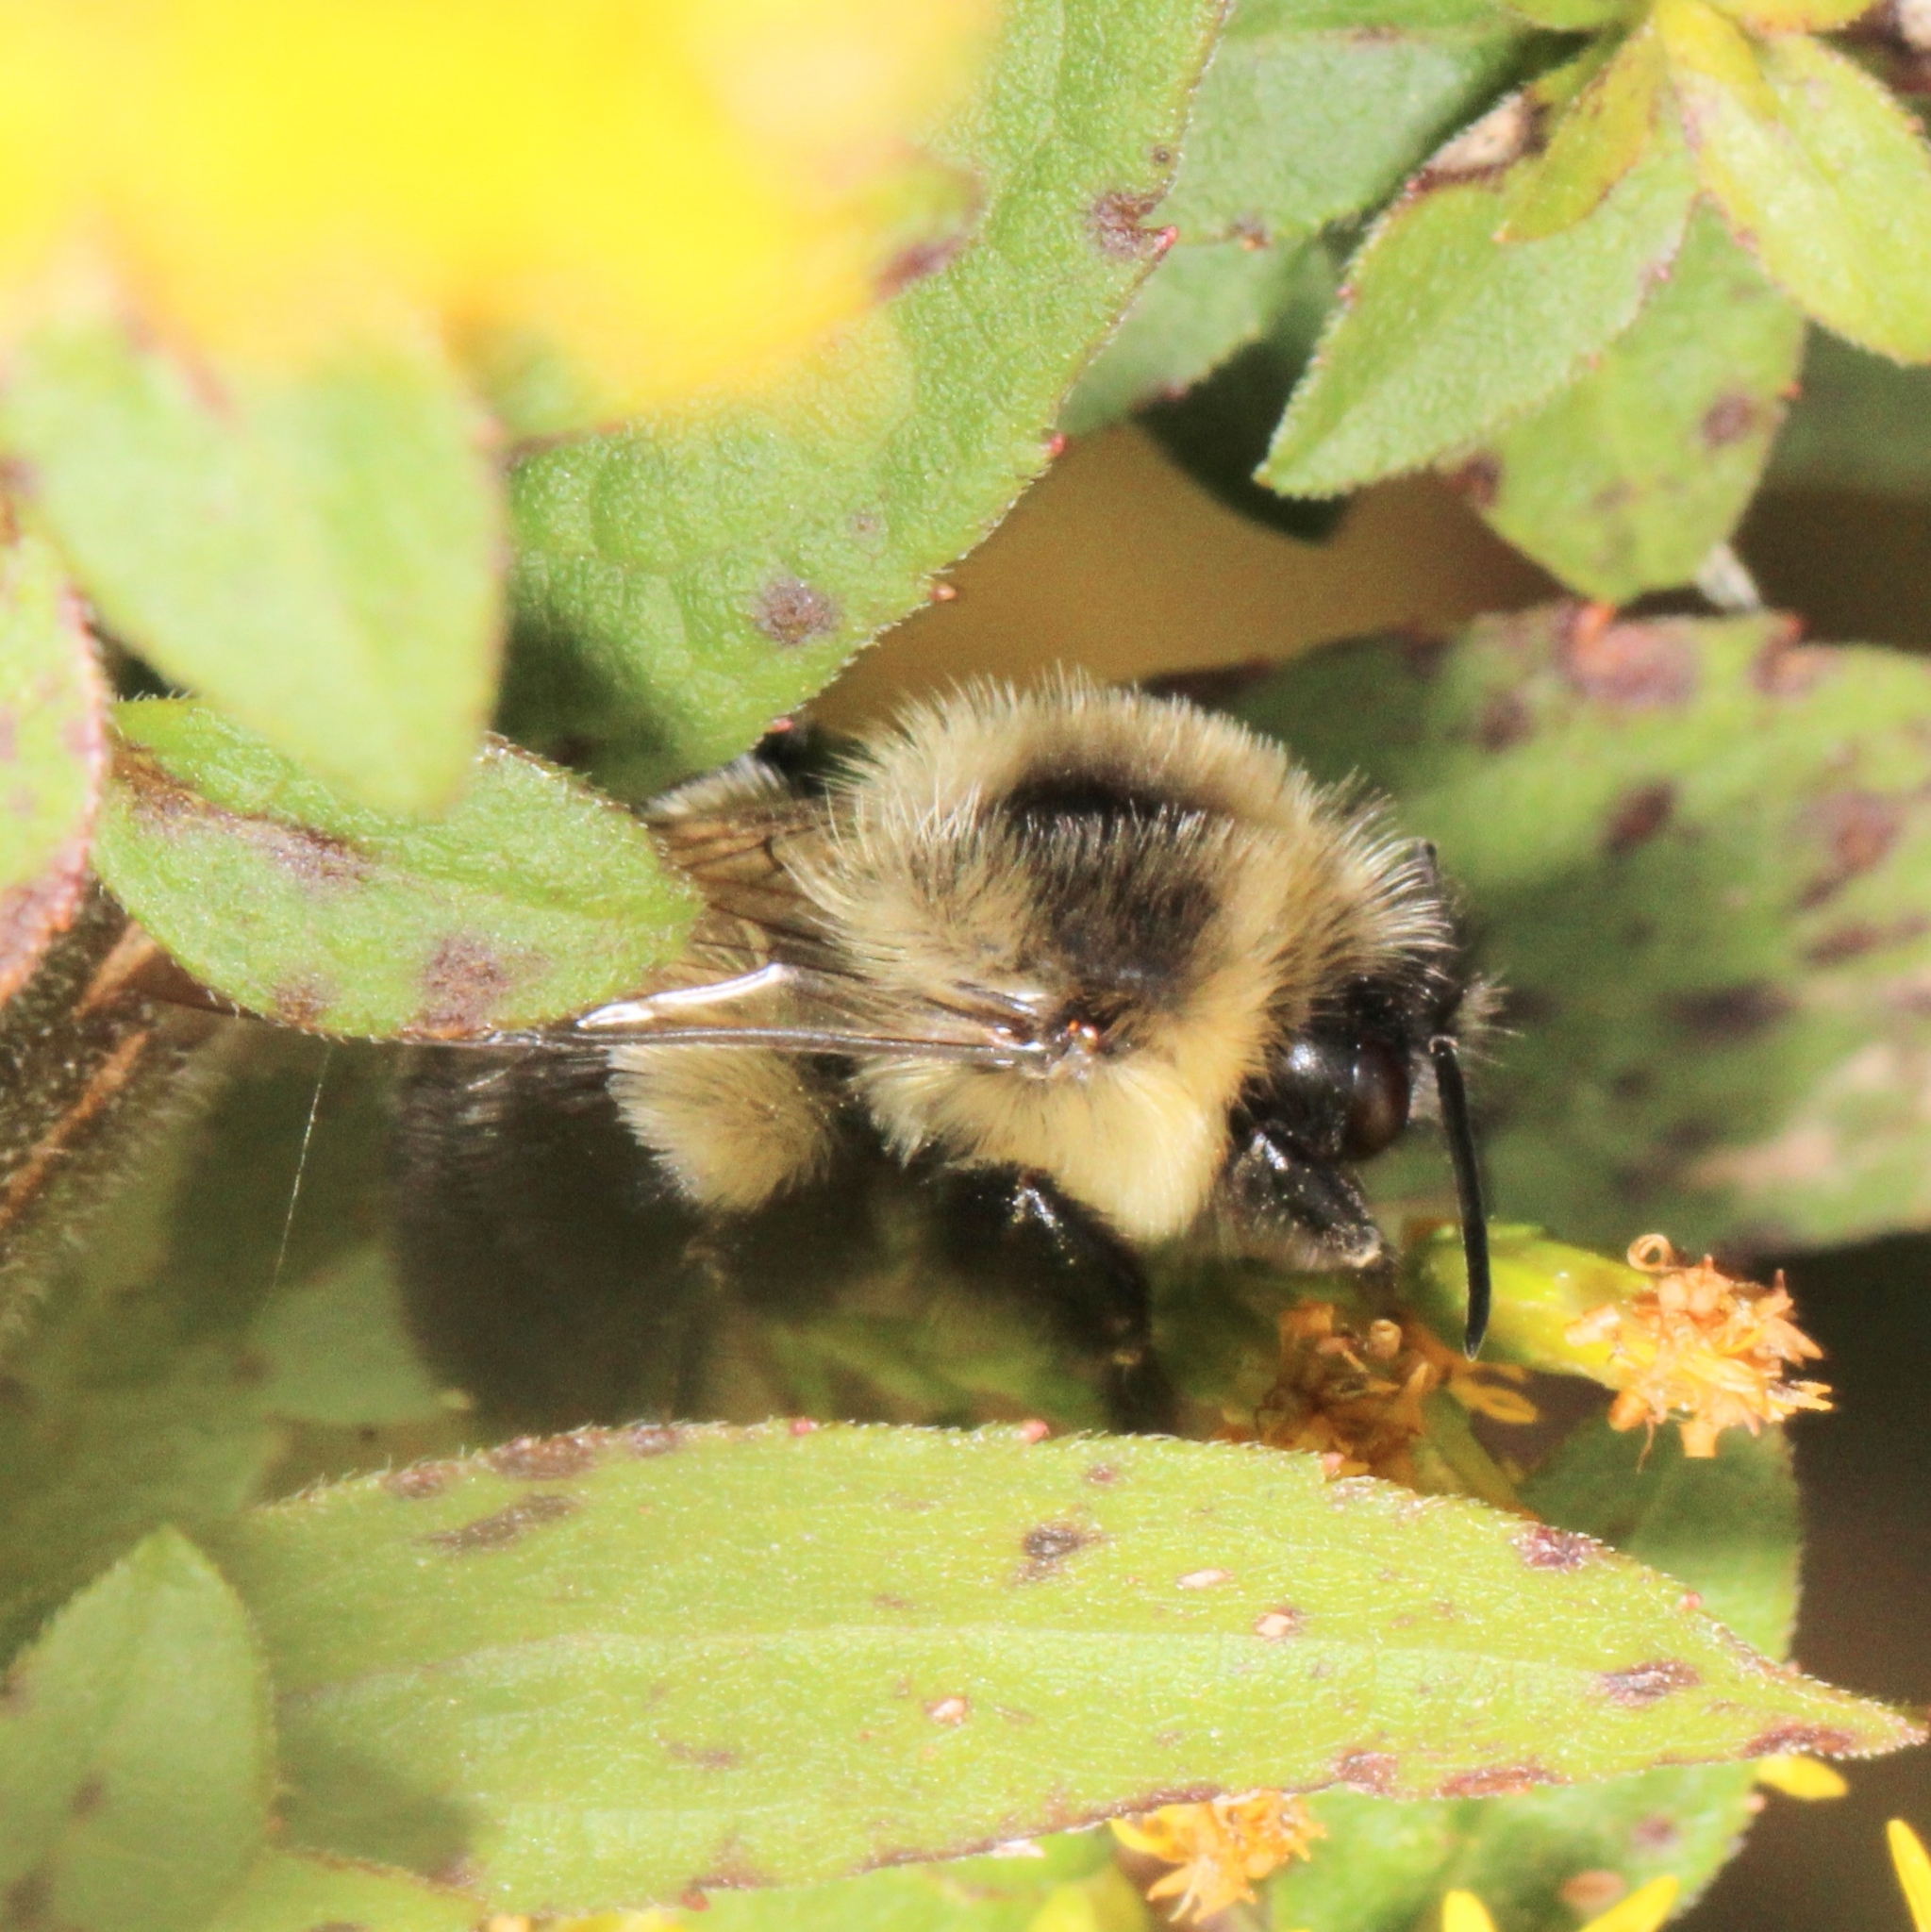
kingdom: Animalia
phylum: Arthropoda
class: Insecta
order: Hymenoptera
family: Apidae
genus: Bombus
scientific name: Bombus impatiens
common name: Common eastern bumble bee
